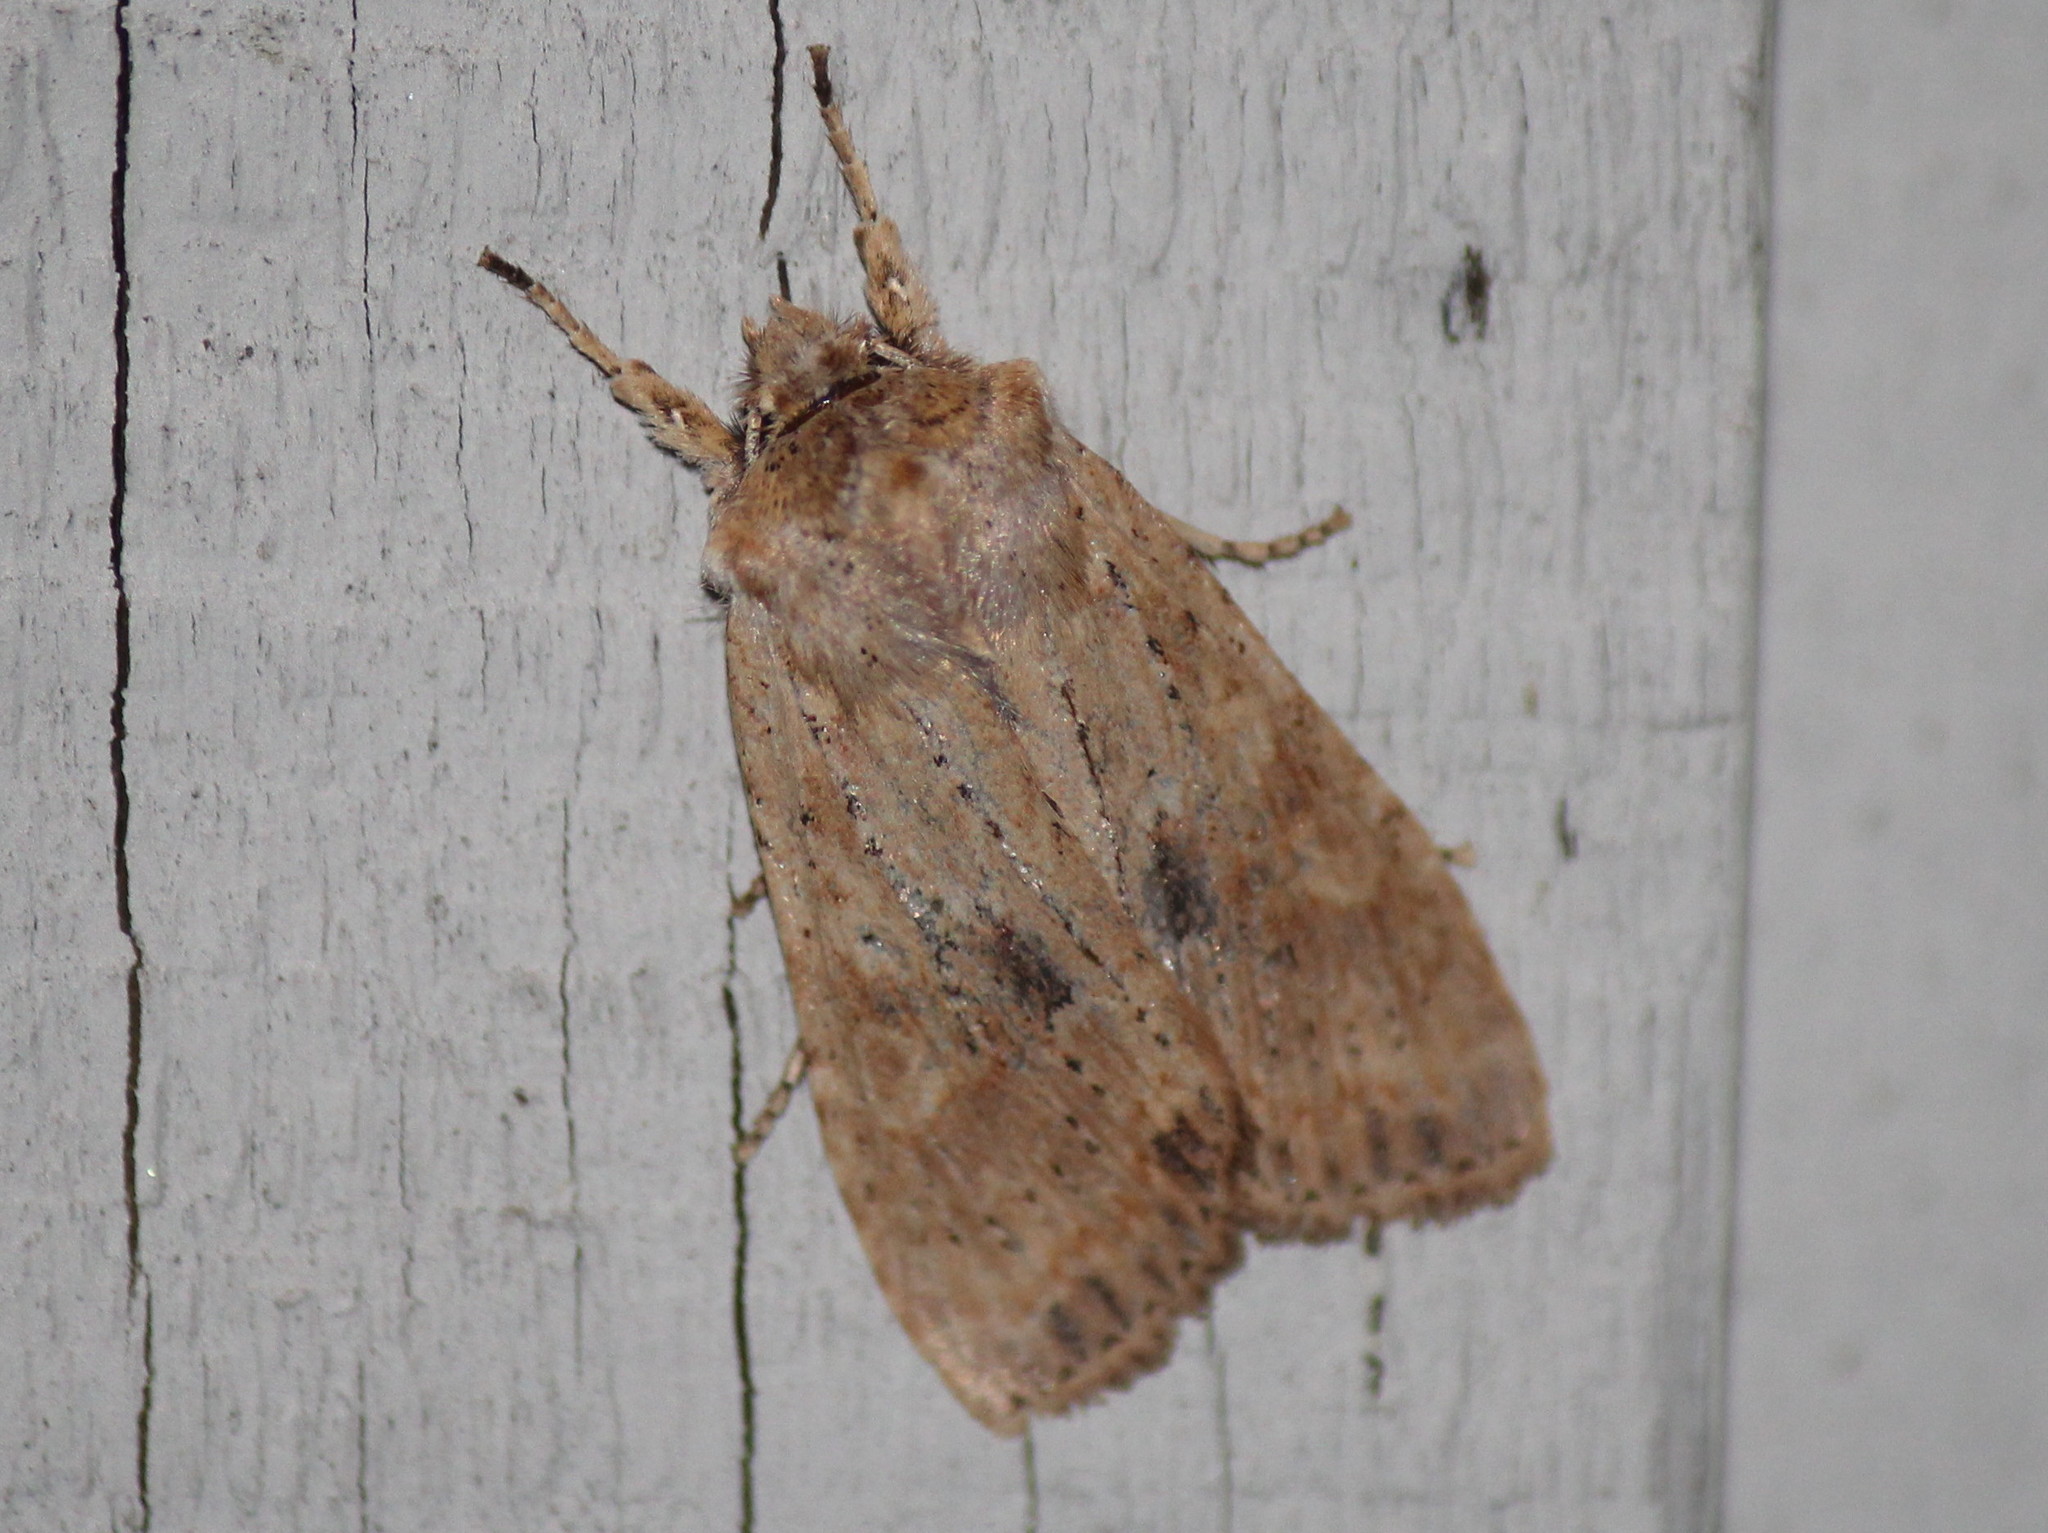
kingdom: Animalia
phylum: Arthropoda
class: Insecta
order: Lepidoptera
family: Noctuidae
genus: Lithophane
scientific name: Lithophane innominata
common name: Nameless pinion moth
